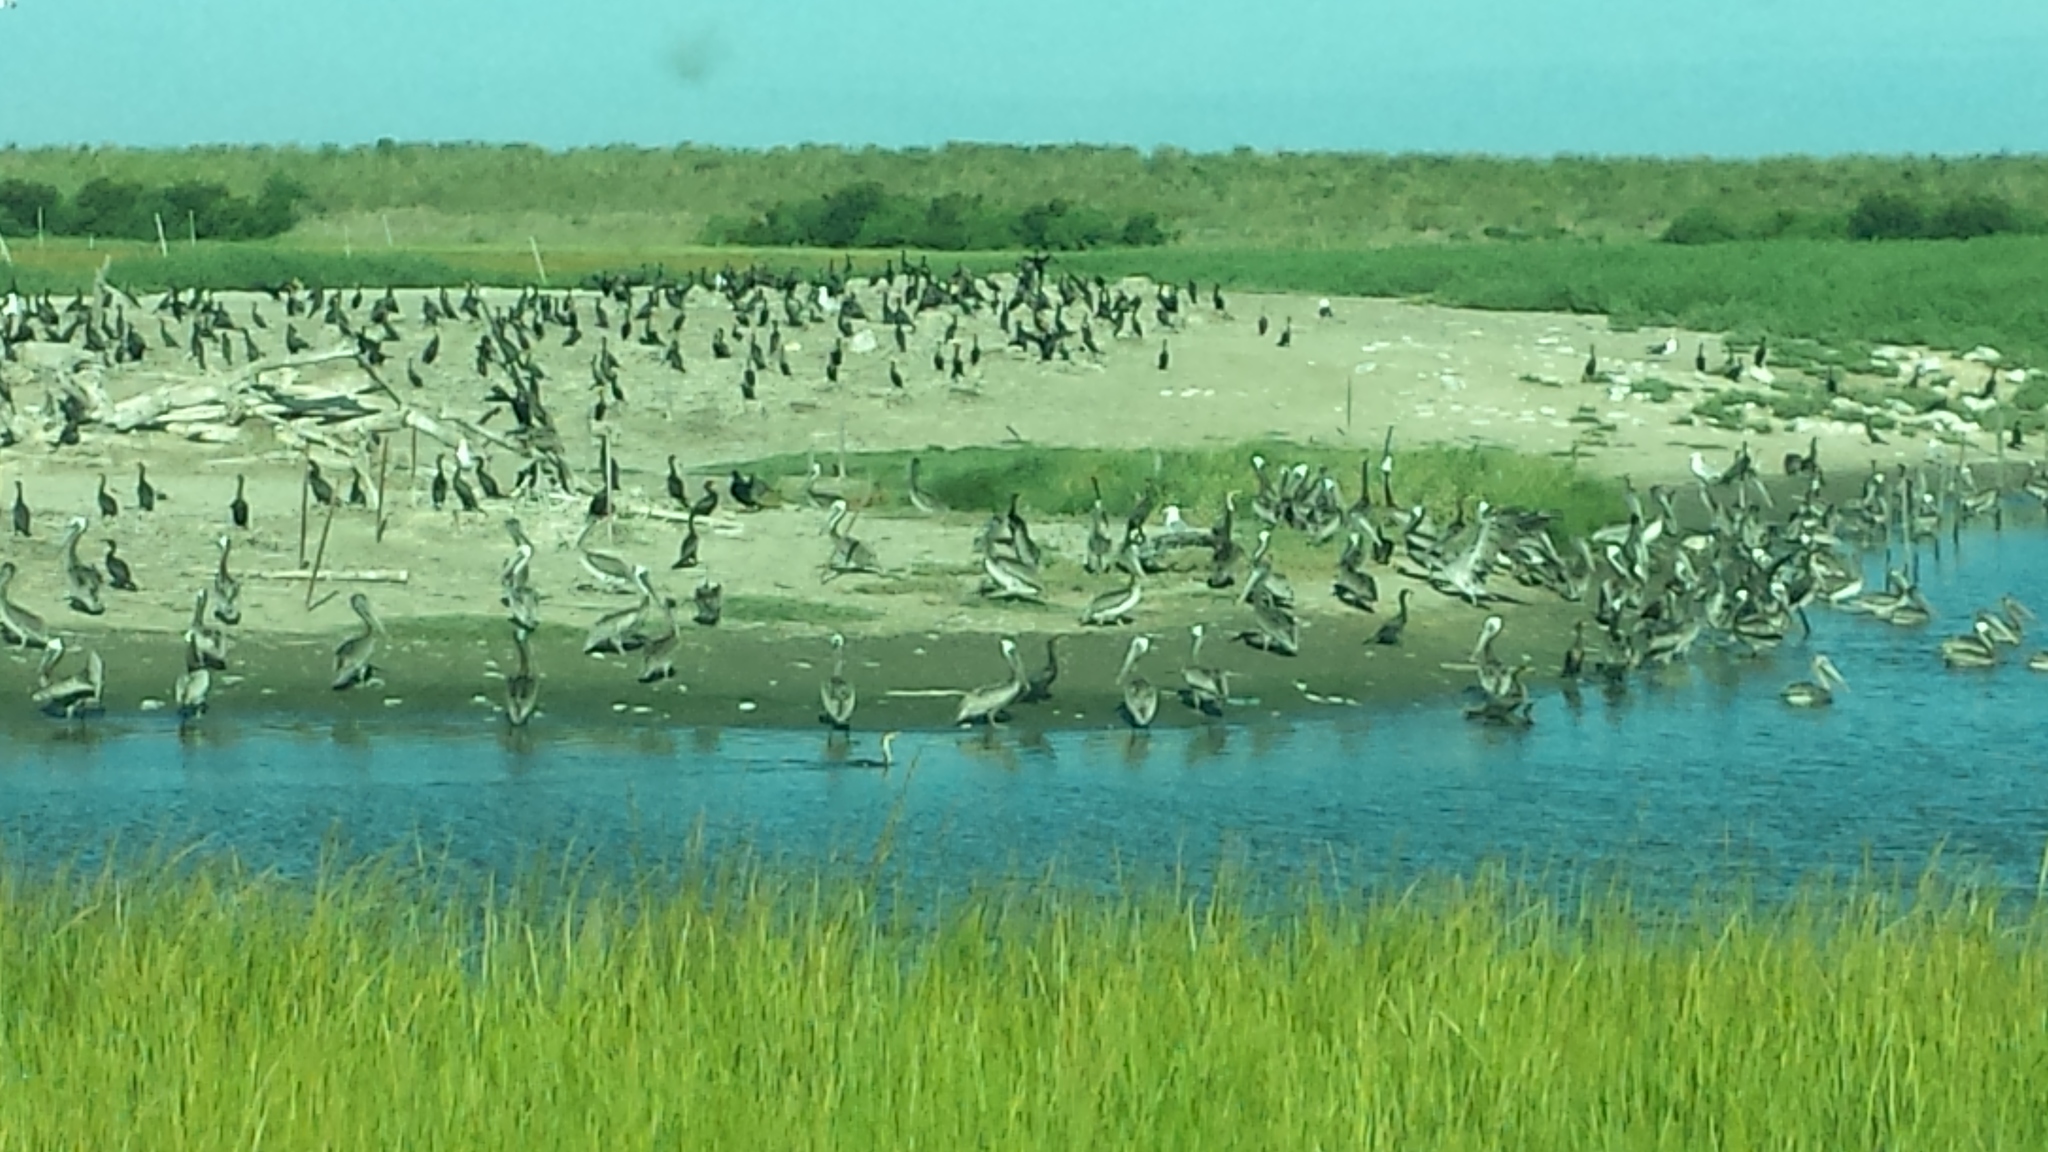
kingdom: Animalia
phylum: Chordata
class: Aves
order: Pelecaniformes
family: Pelecanidae
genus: Pelecanus
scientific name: Pelecanus occidentalis
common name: Brown pelican
